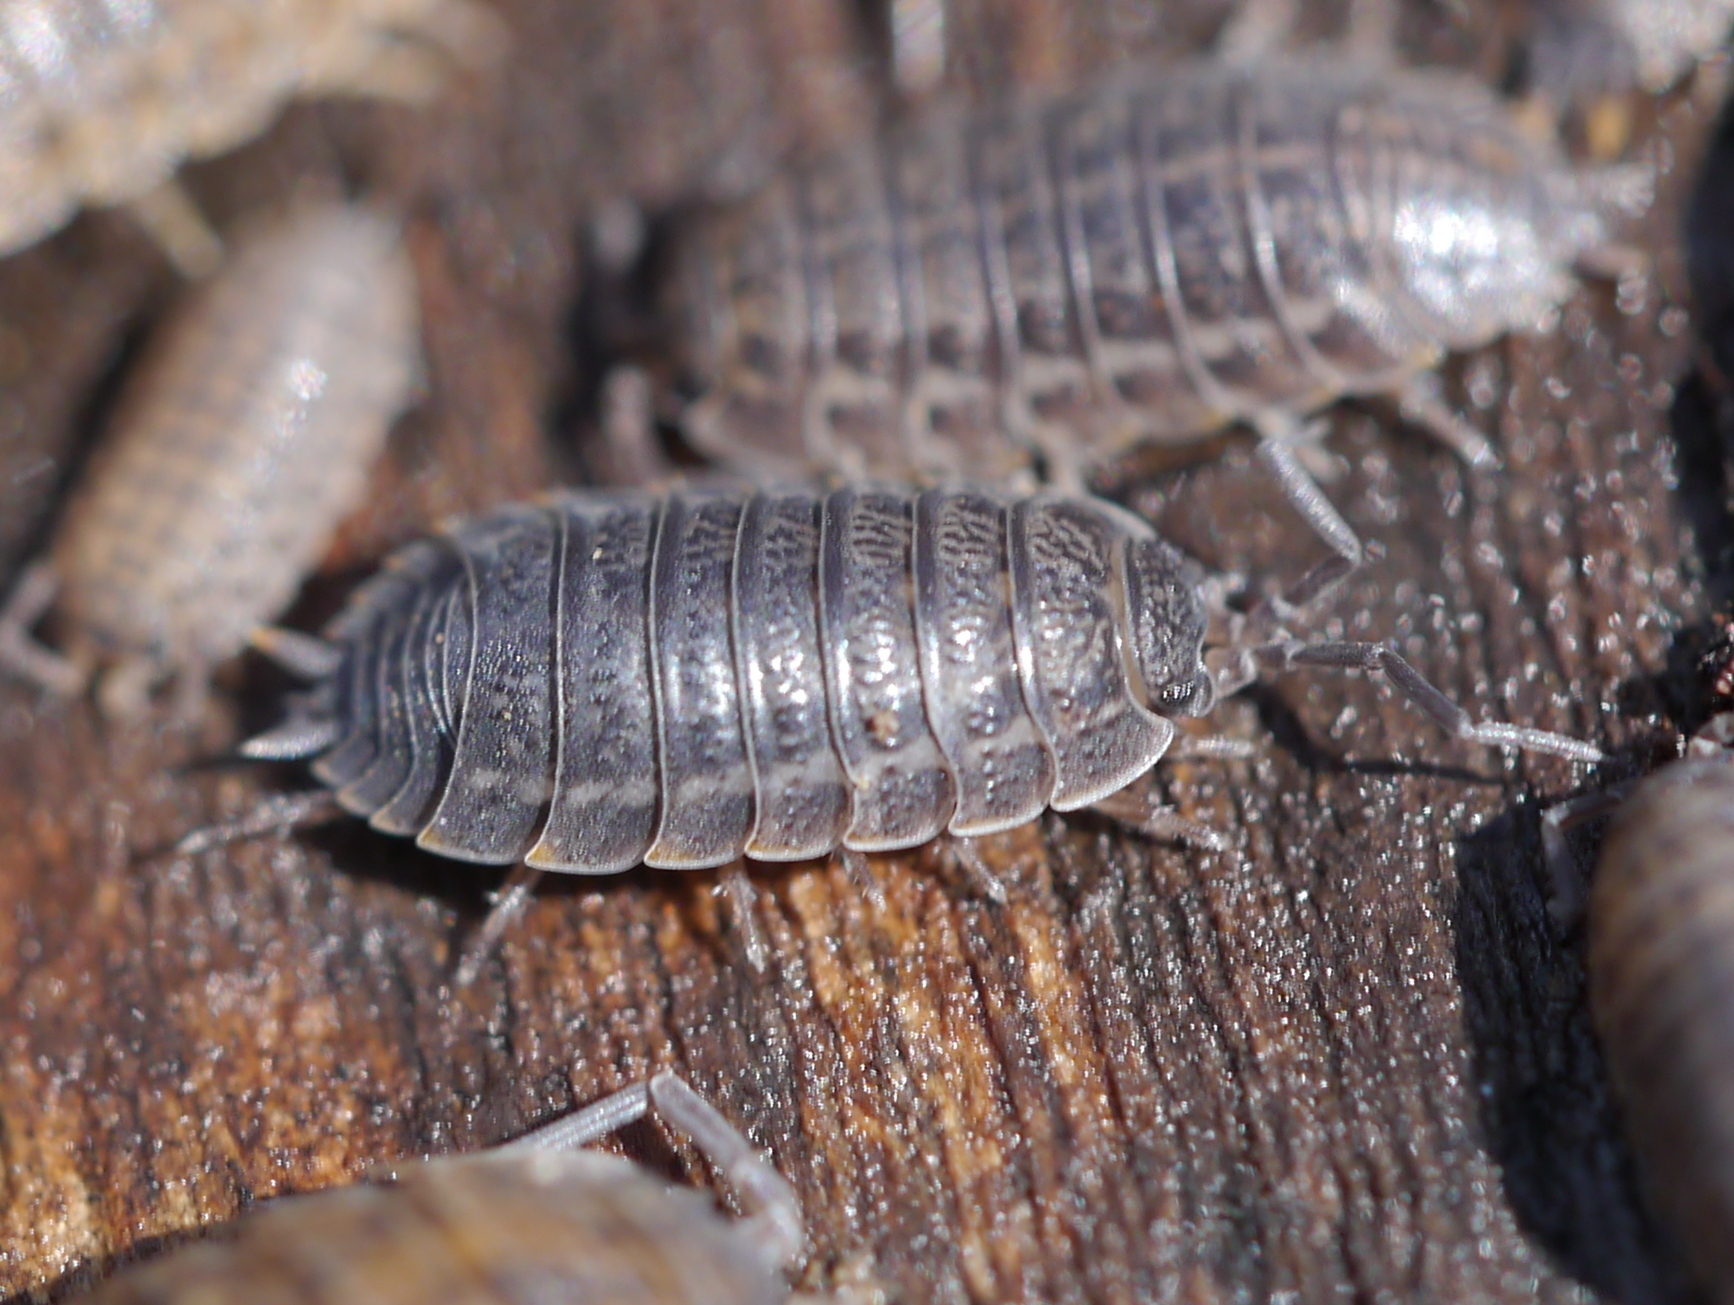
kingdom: Animalia
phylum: Arthropoda
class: Malacostraca
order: Isopoda
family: Trachelipodidae
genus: Trachelipus
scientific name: Trachelipus rathkii
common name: Isopod
